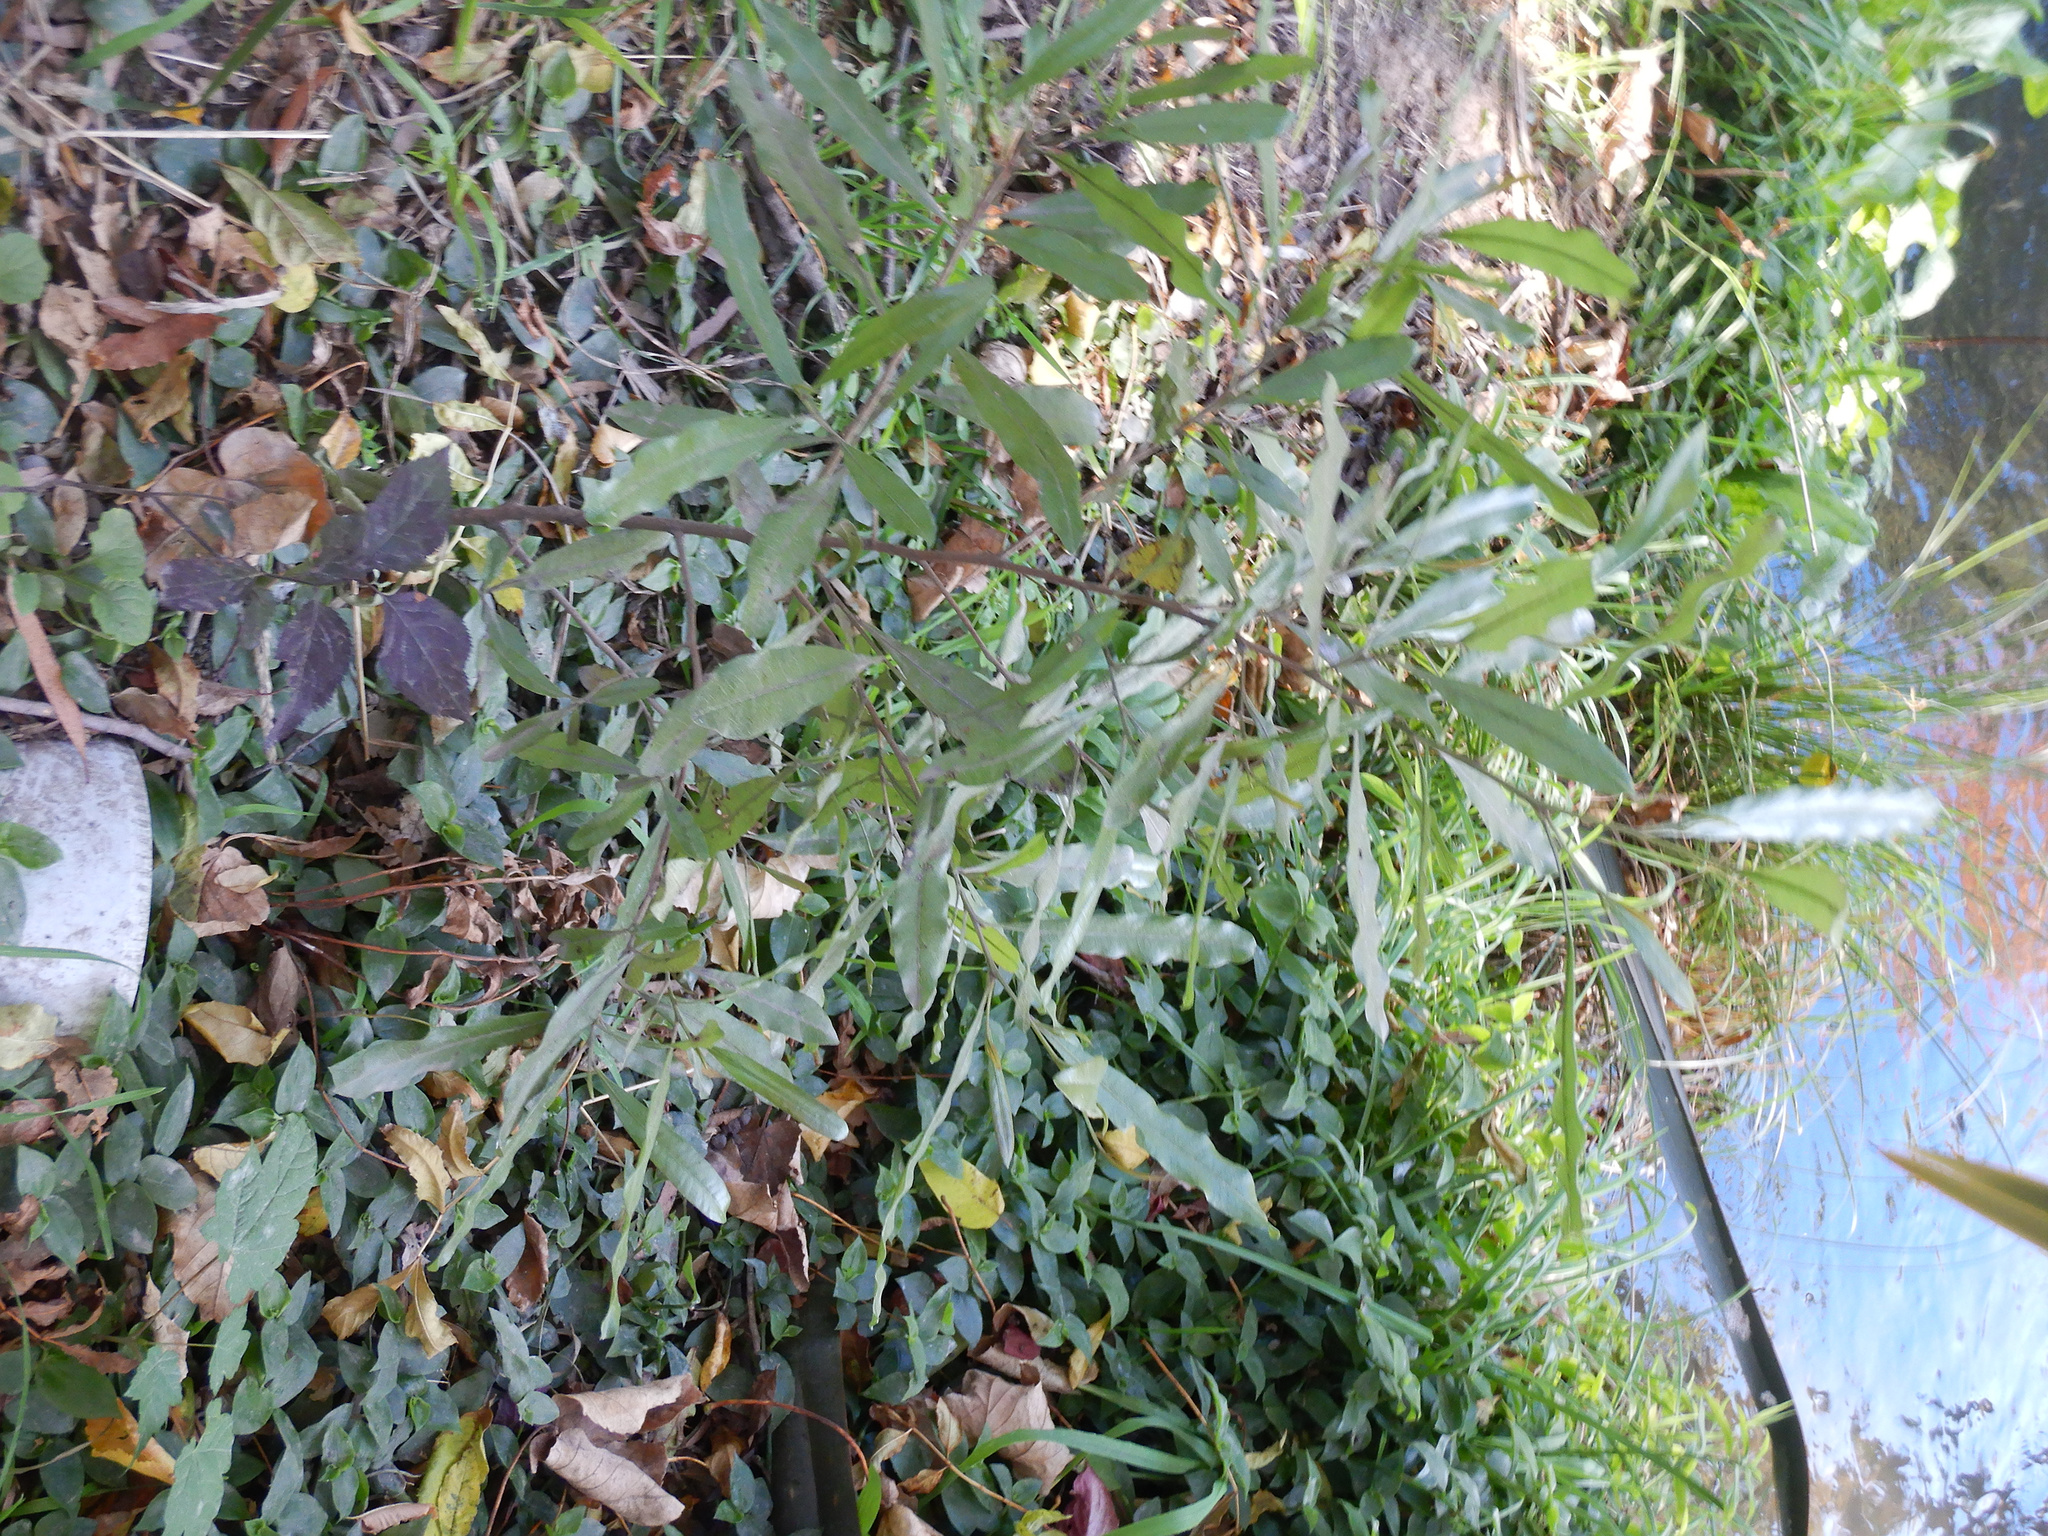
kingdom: Plantae
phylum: Tracheophyta
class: Magnoliopsida
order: Sapindales
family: Sapindaceae
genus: Dodonaea
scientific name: Dodonaea viscosa
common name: Hopbush
